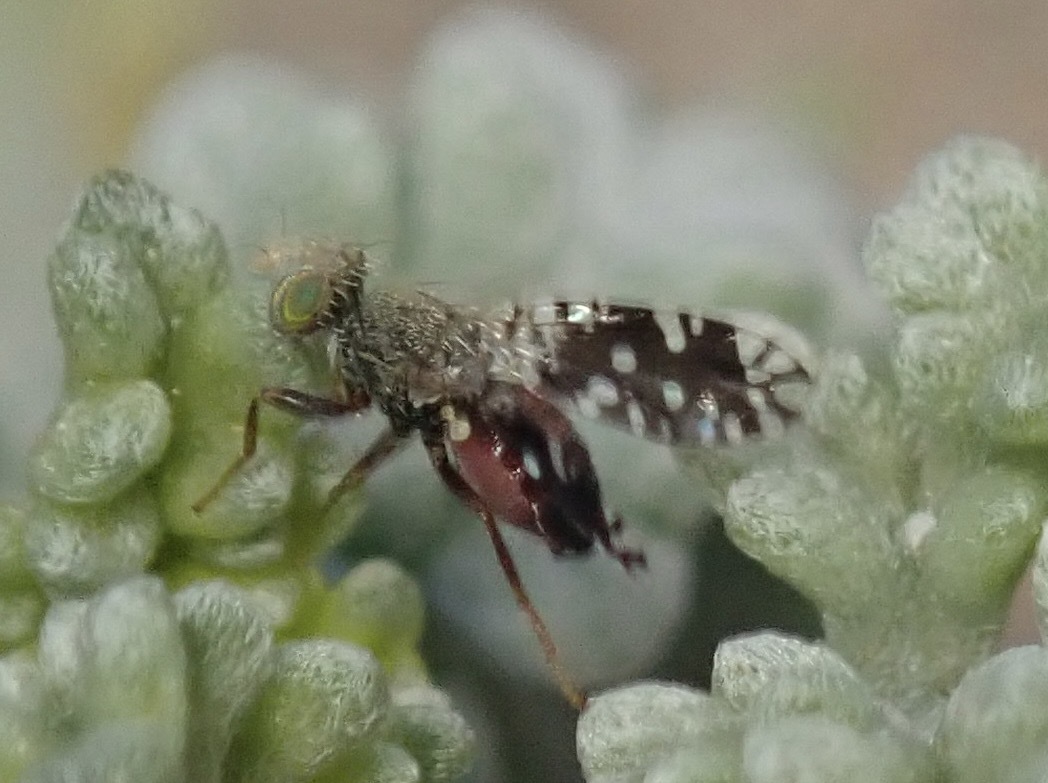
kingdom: Animalia
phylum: Arthropoda
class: Insecta
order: Diptera
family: Tephritidae
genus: Euaresta
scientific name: Euaresta stelligera
